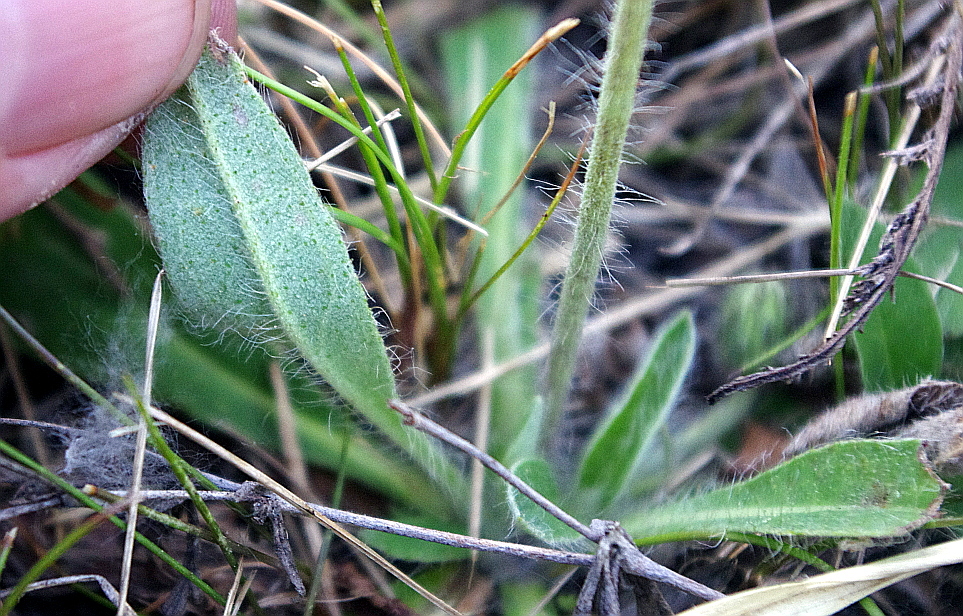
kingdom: Plantae
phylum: Tracheophyta
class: Magnoliopsida
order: Asterales
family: Asteraceae
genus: Pilosella
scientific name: Pilosella officinarum
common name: Mouse-ear hawkweed
